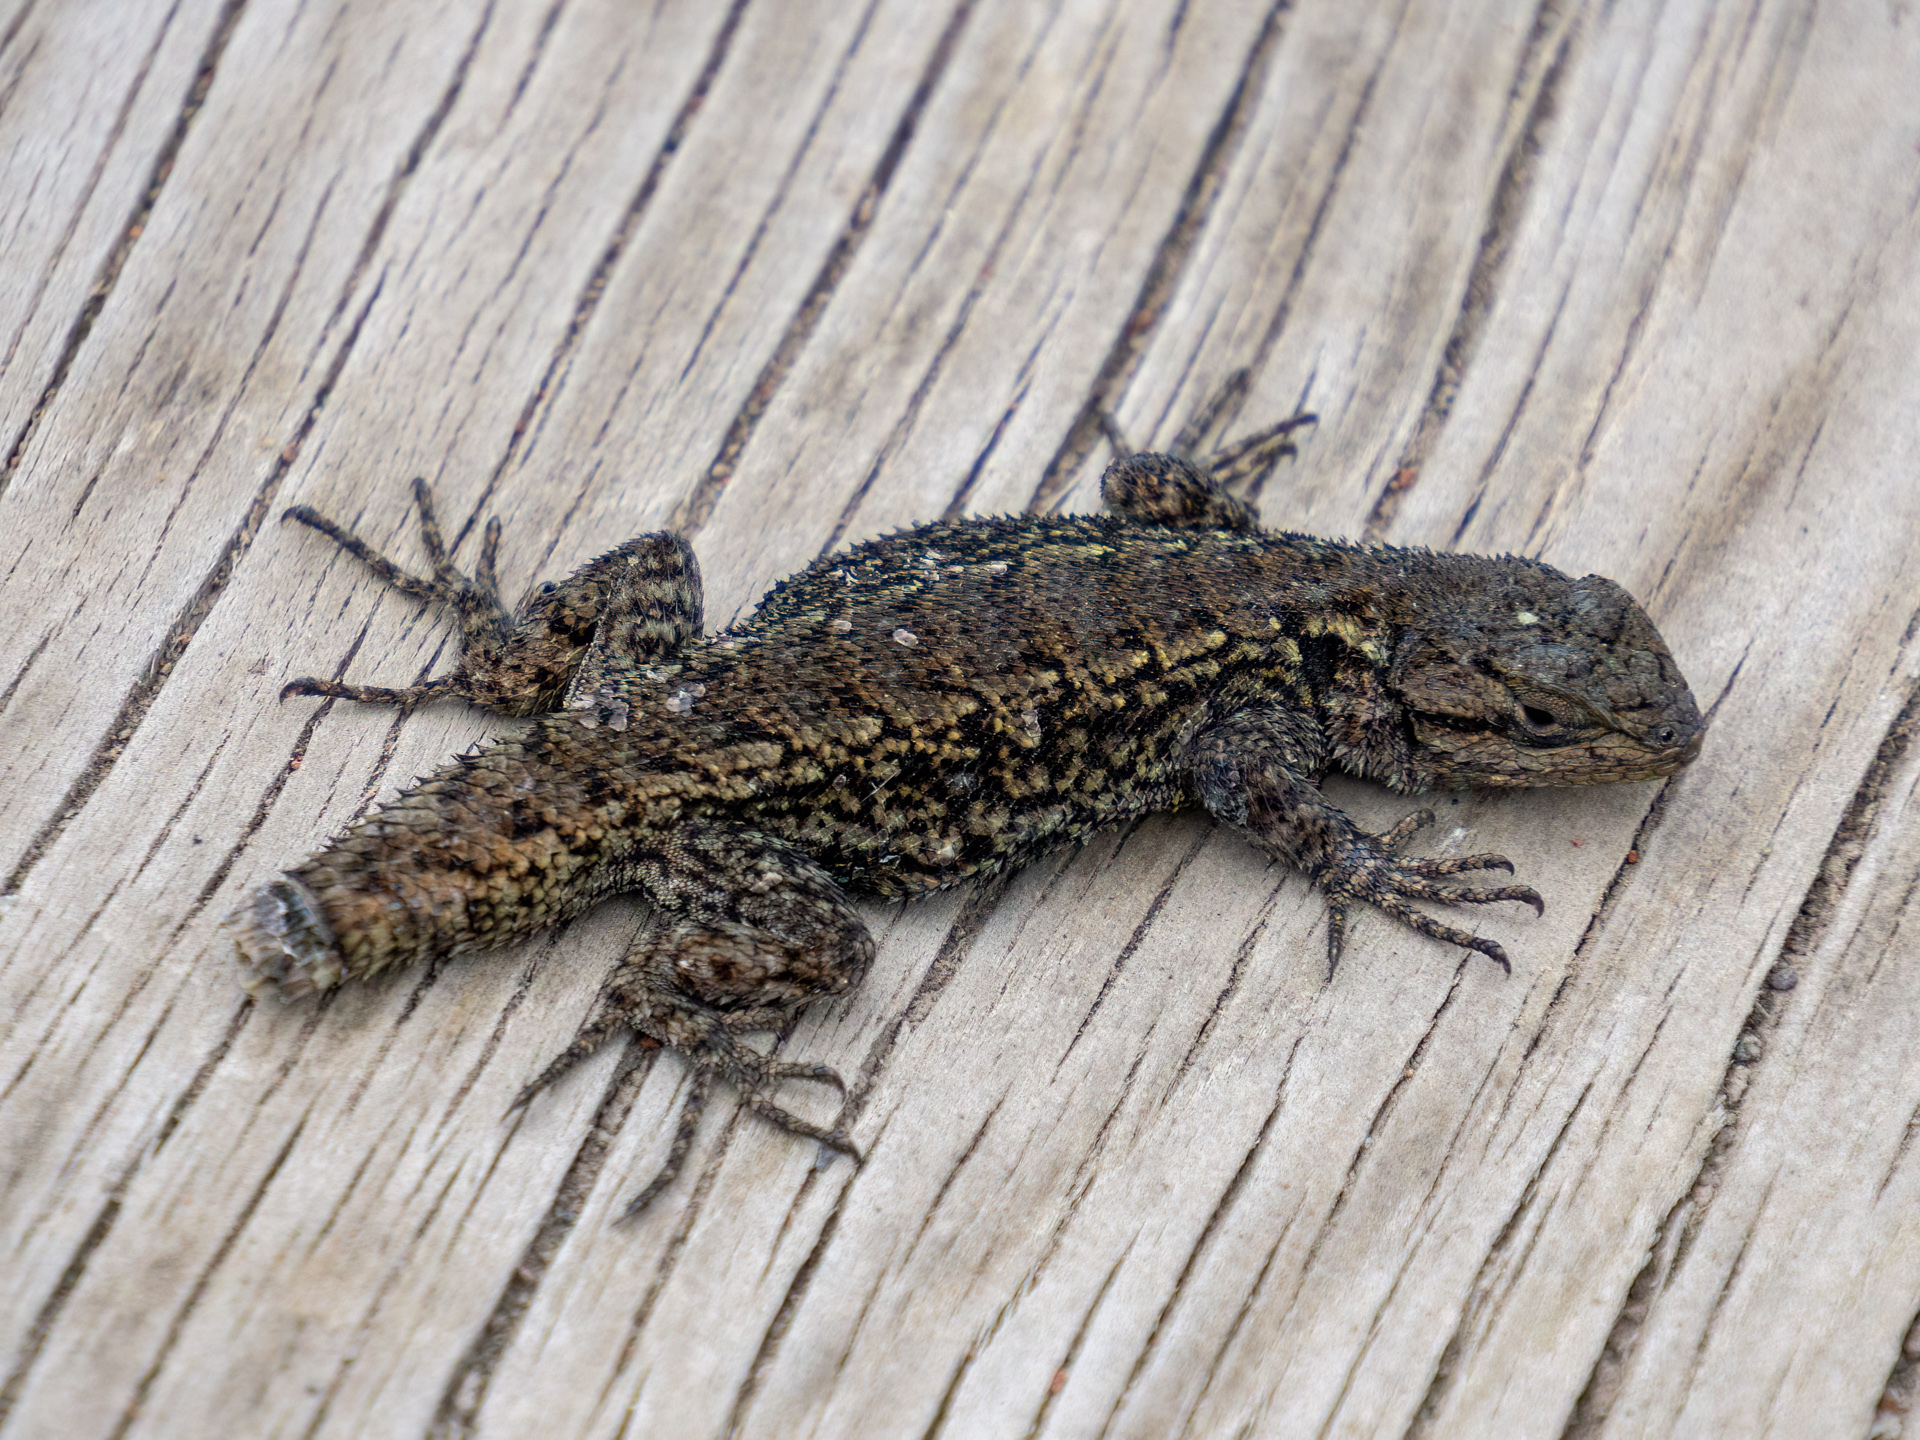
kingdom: Animalia
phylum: Chordata
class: Squamata
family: Phrynosomatidae
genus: Sceloporus
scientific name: Sceloporus anahuacus
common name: Anahuacan bunchgrass lizard
